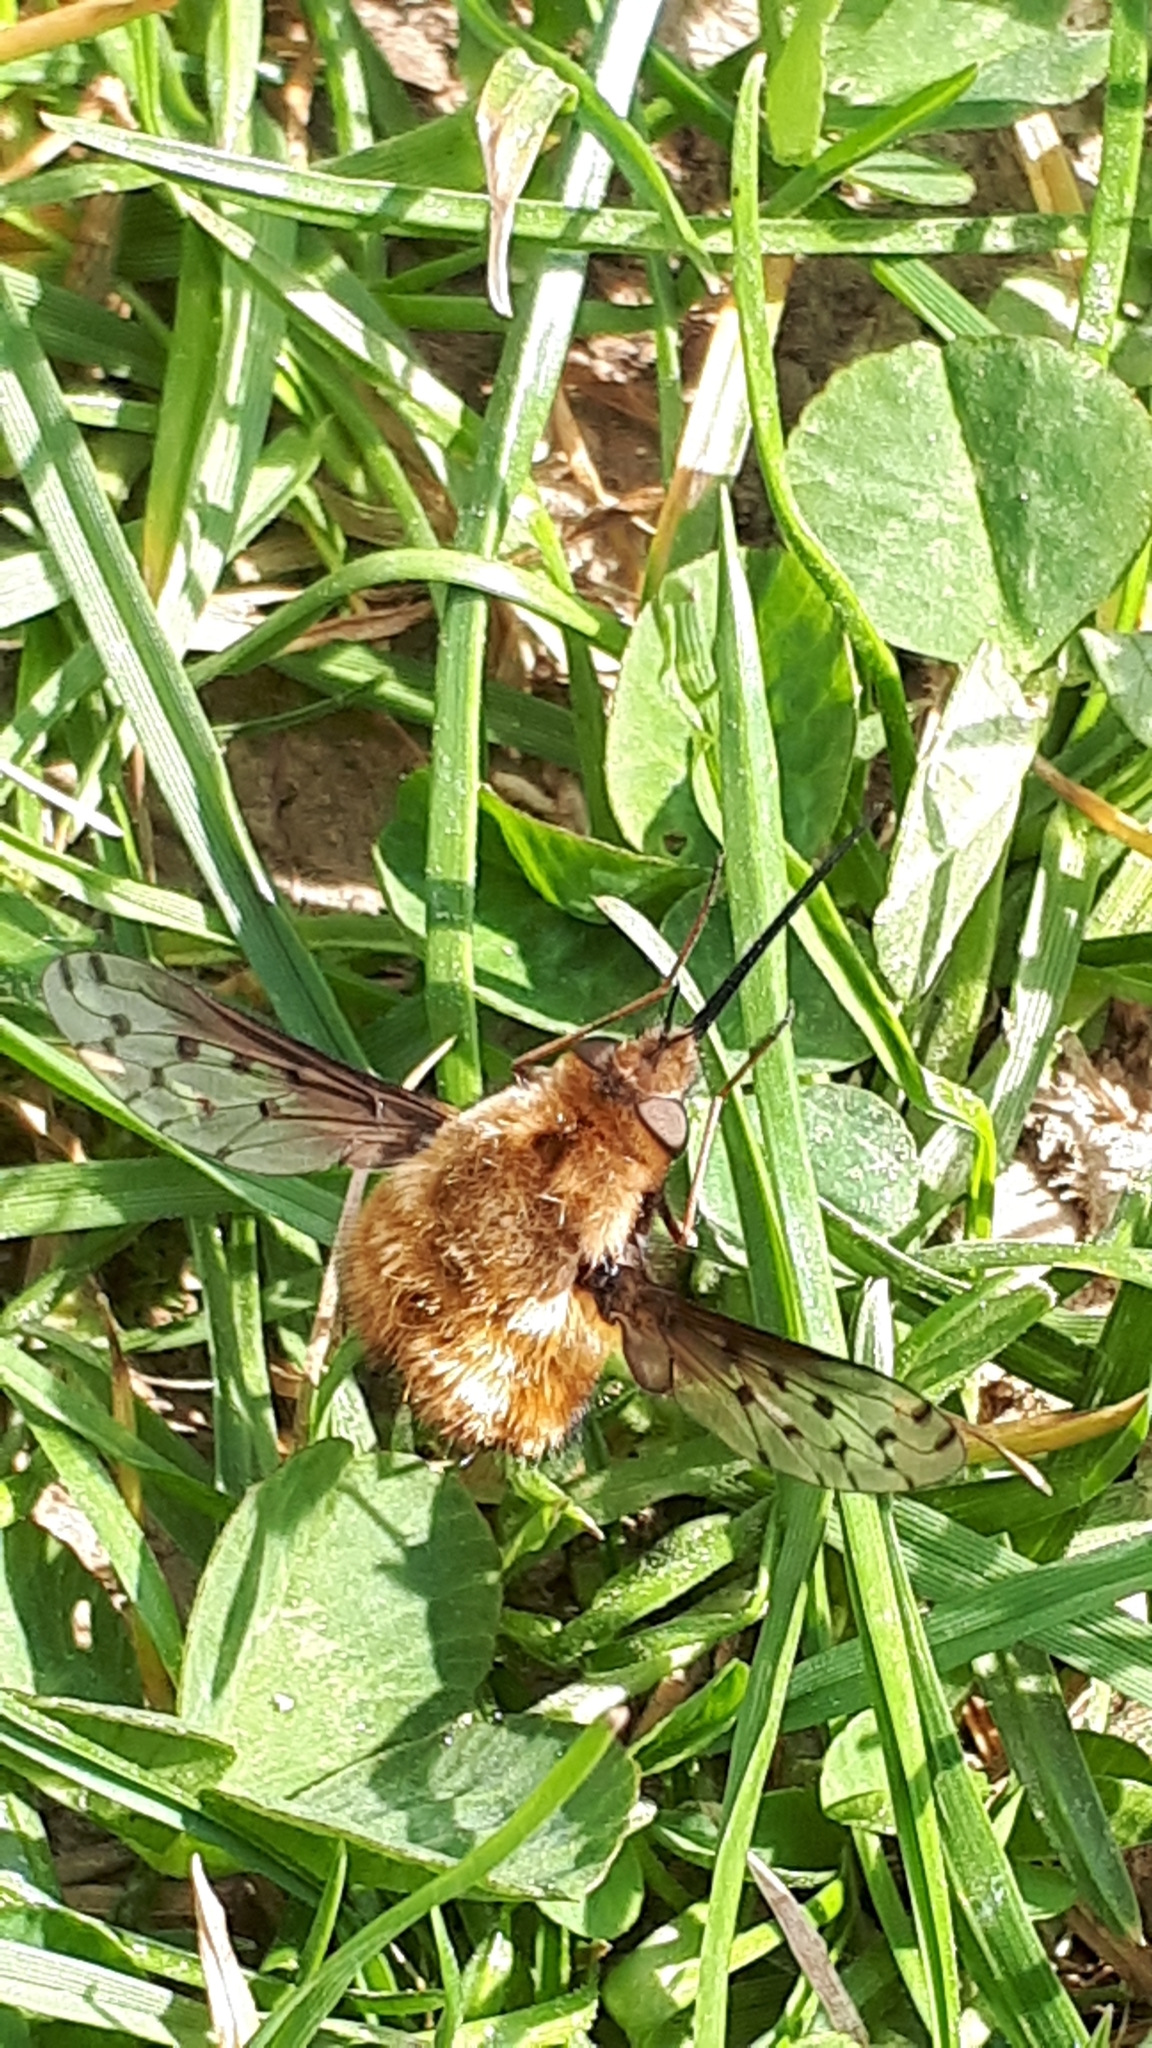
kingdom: Animalia
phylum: Arthropoda
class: Insecta
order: Diptera
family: Bombyliidae
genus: Bombylius
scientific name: Bombylius discolor
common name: Dotted bee-fly
